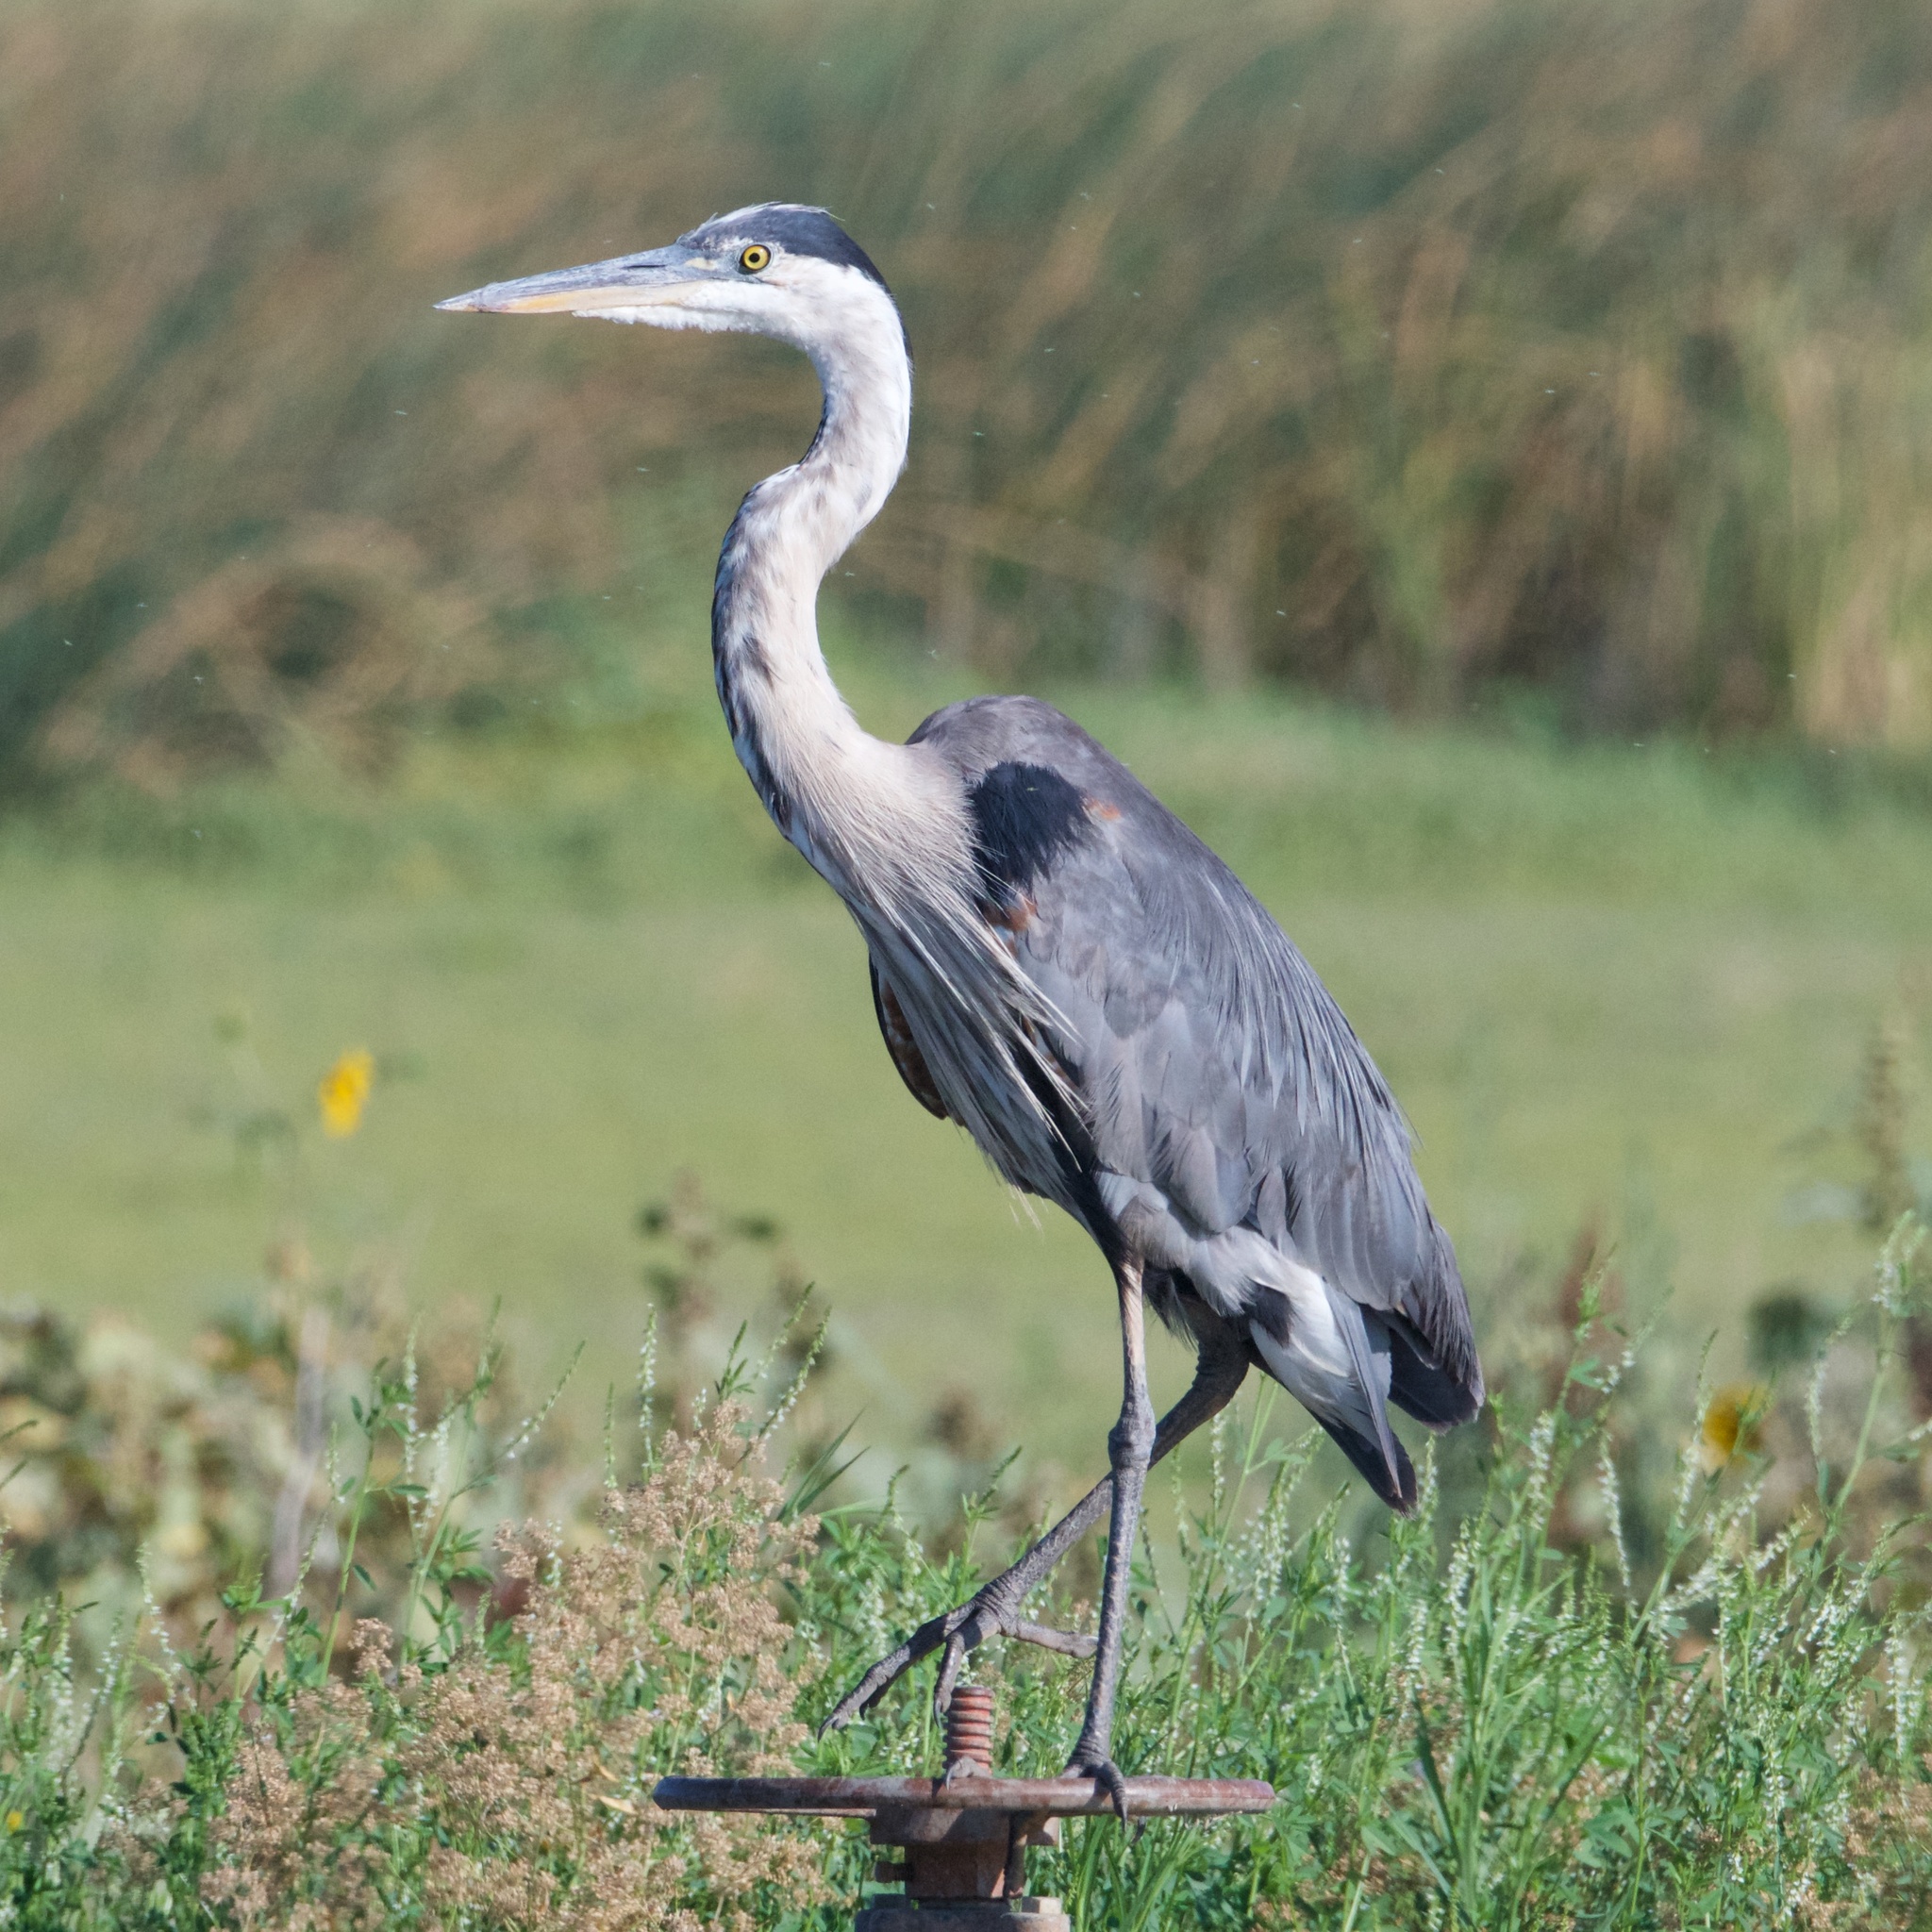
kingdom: Animalia
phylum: Chordata
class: Aves
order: Pelecaniformes
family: Ardeidae
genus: Ardea
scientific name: Ardea herodias
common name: Great blue heron
